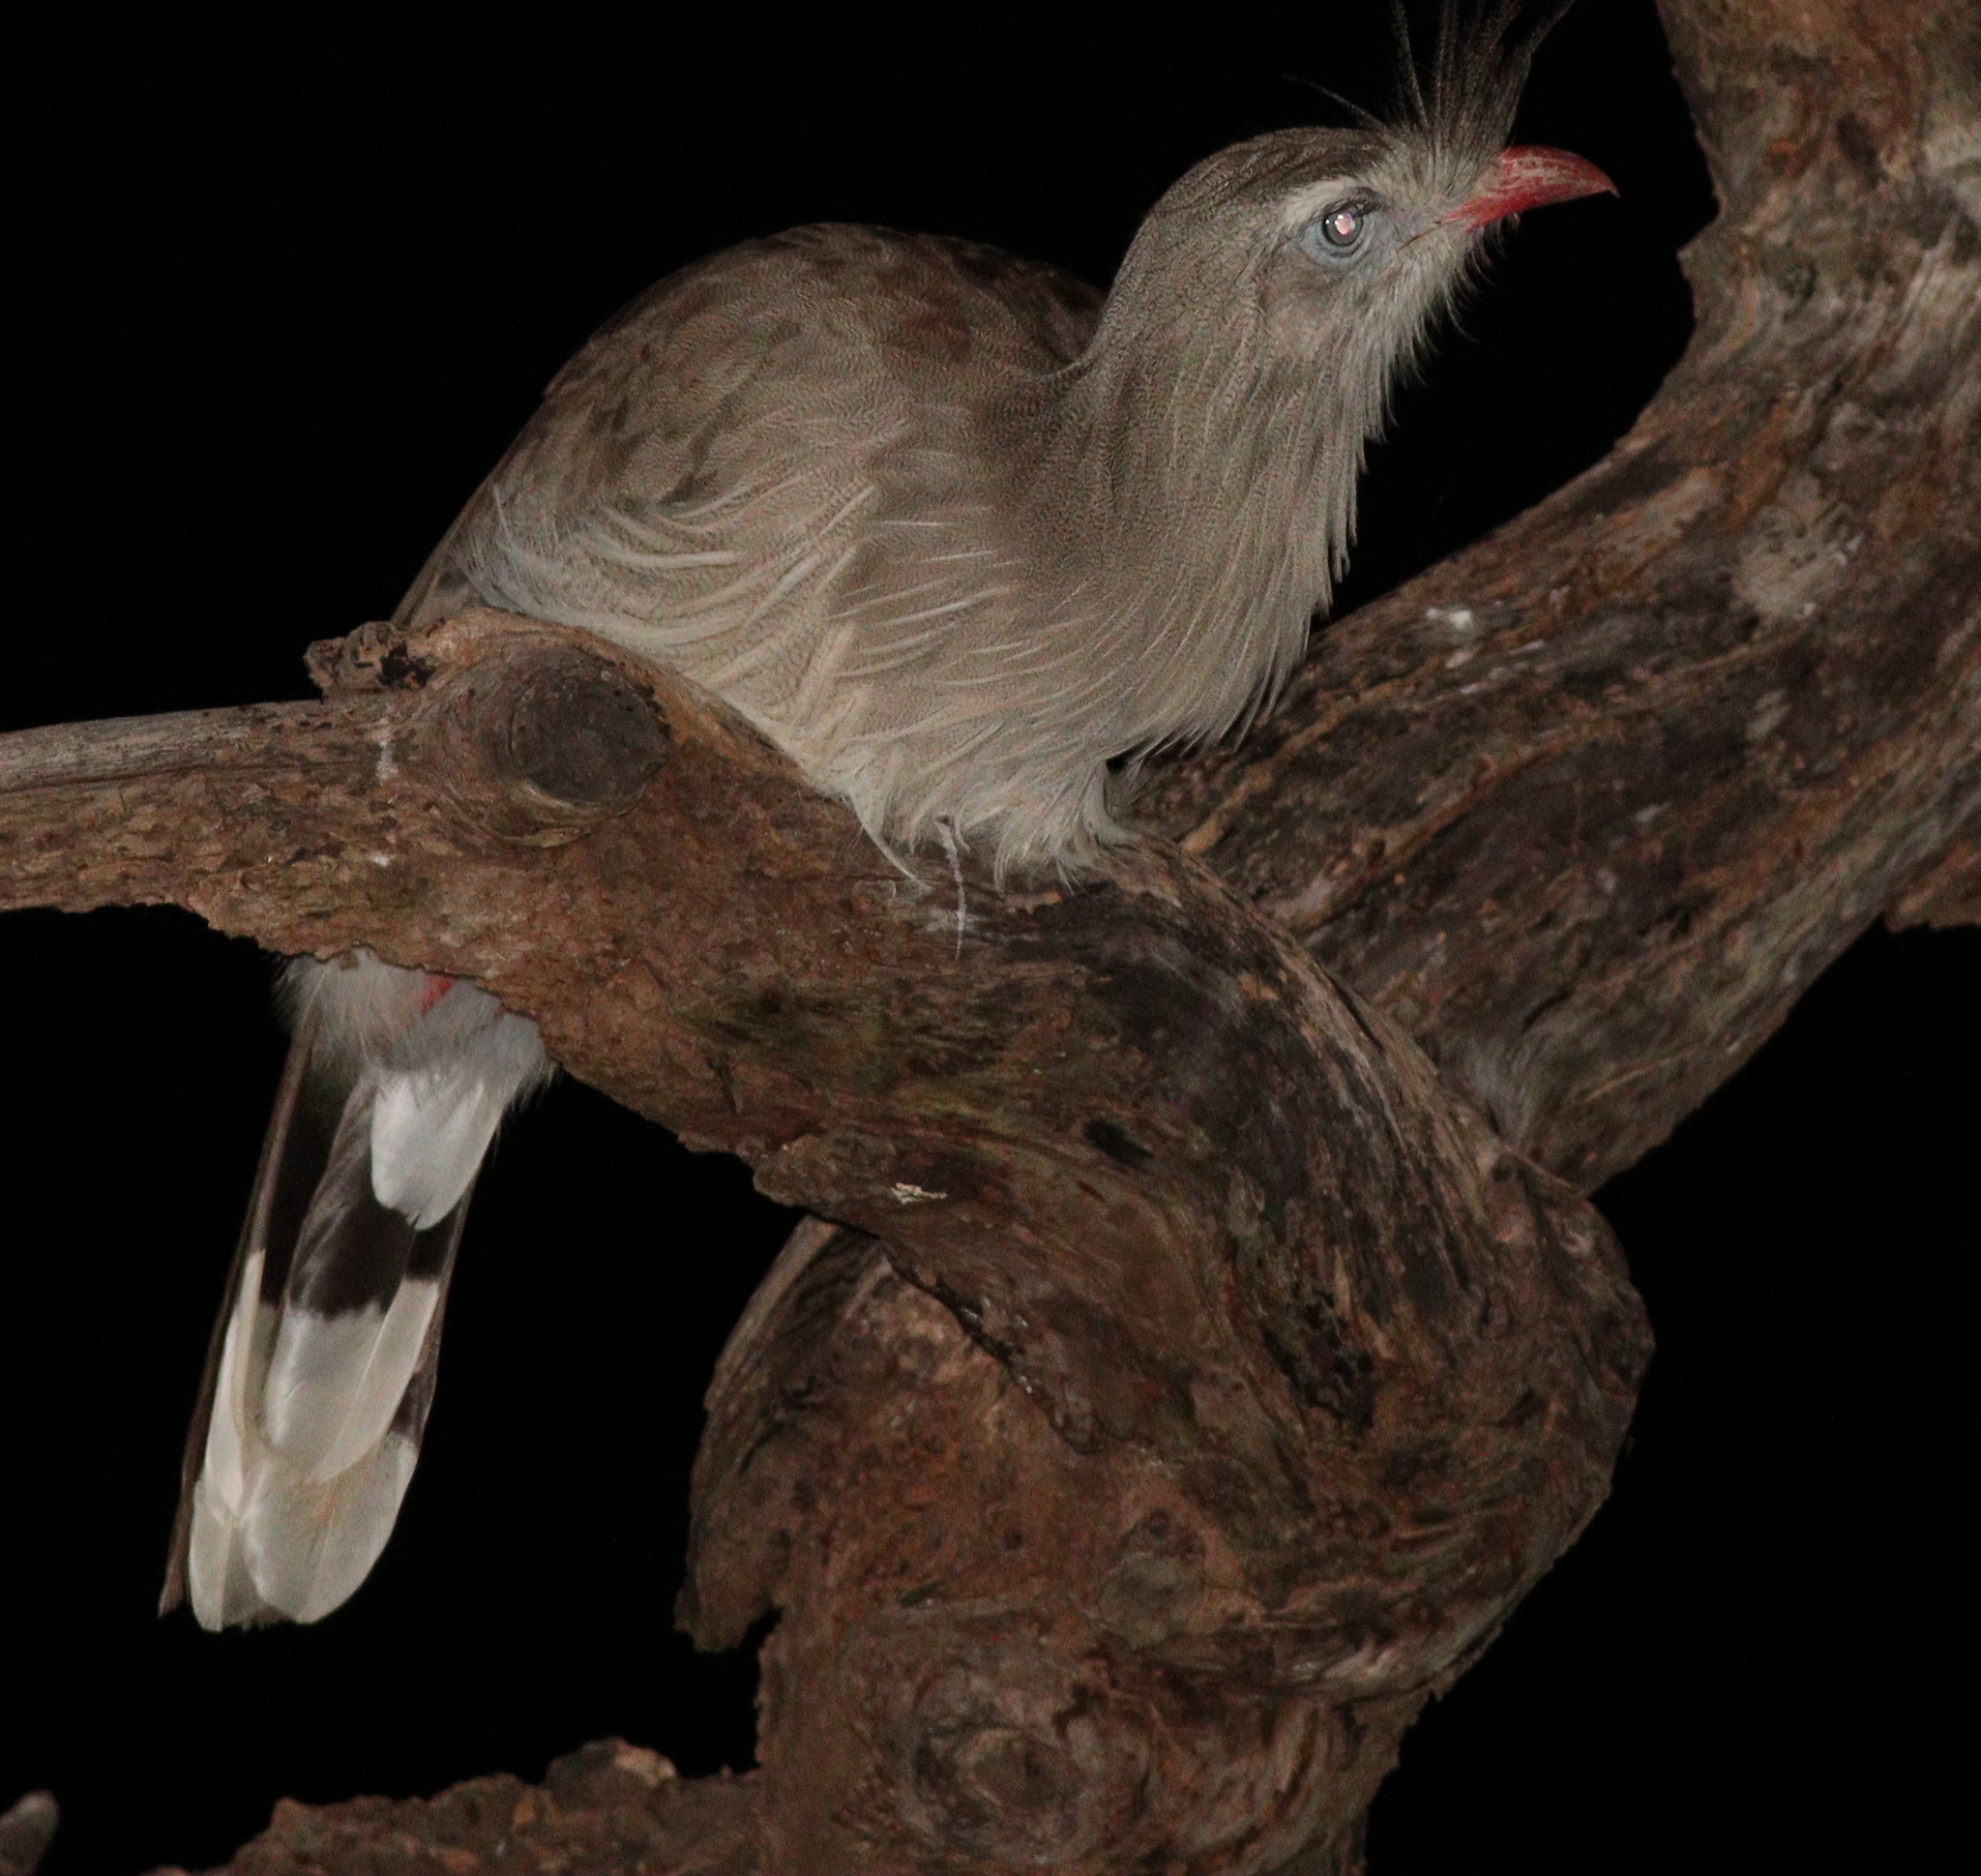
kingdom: Animalia
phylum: Chordata
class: Aves
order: Cariamiformes
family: Cariamidae
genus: Cariama
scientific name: Cariama cristata
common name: Red-legged seriema
